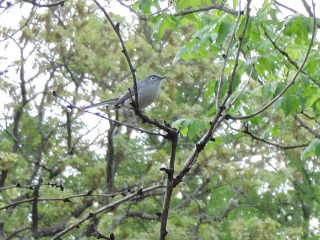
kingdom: Animalia
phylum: Chordata
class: Aves
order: Passeriformes
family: Polioptilidae
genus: Polioptila
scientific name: Polioptila caerulea
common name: Blue-gray gnatcatcher
